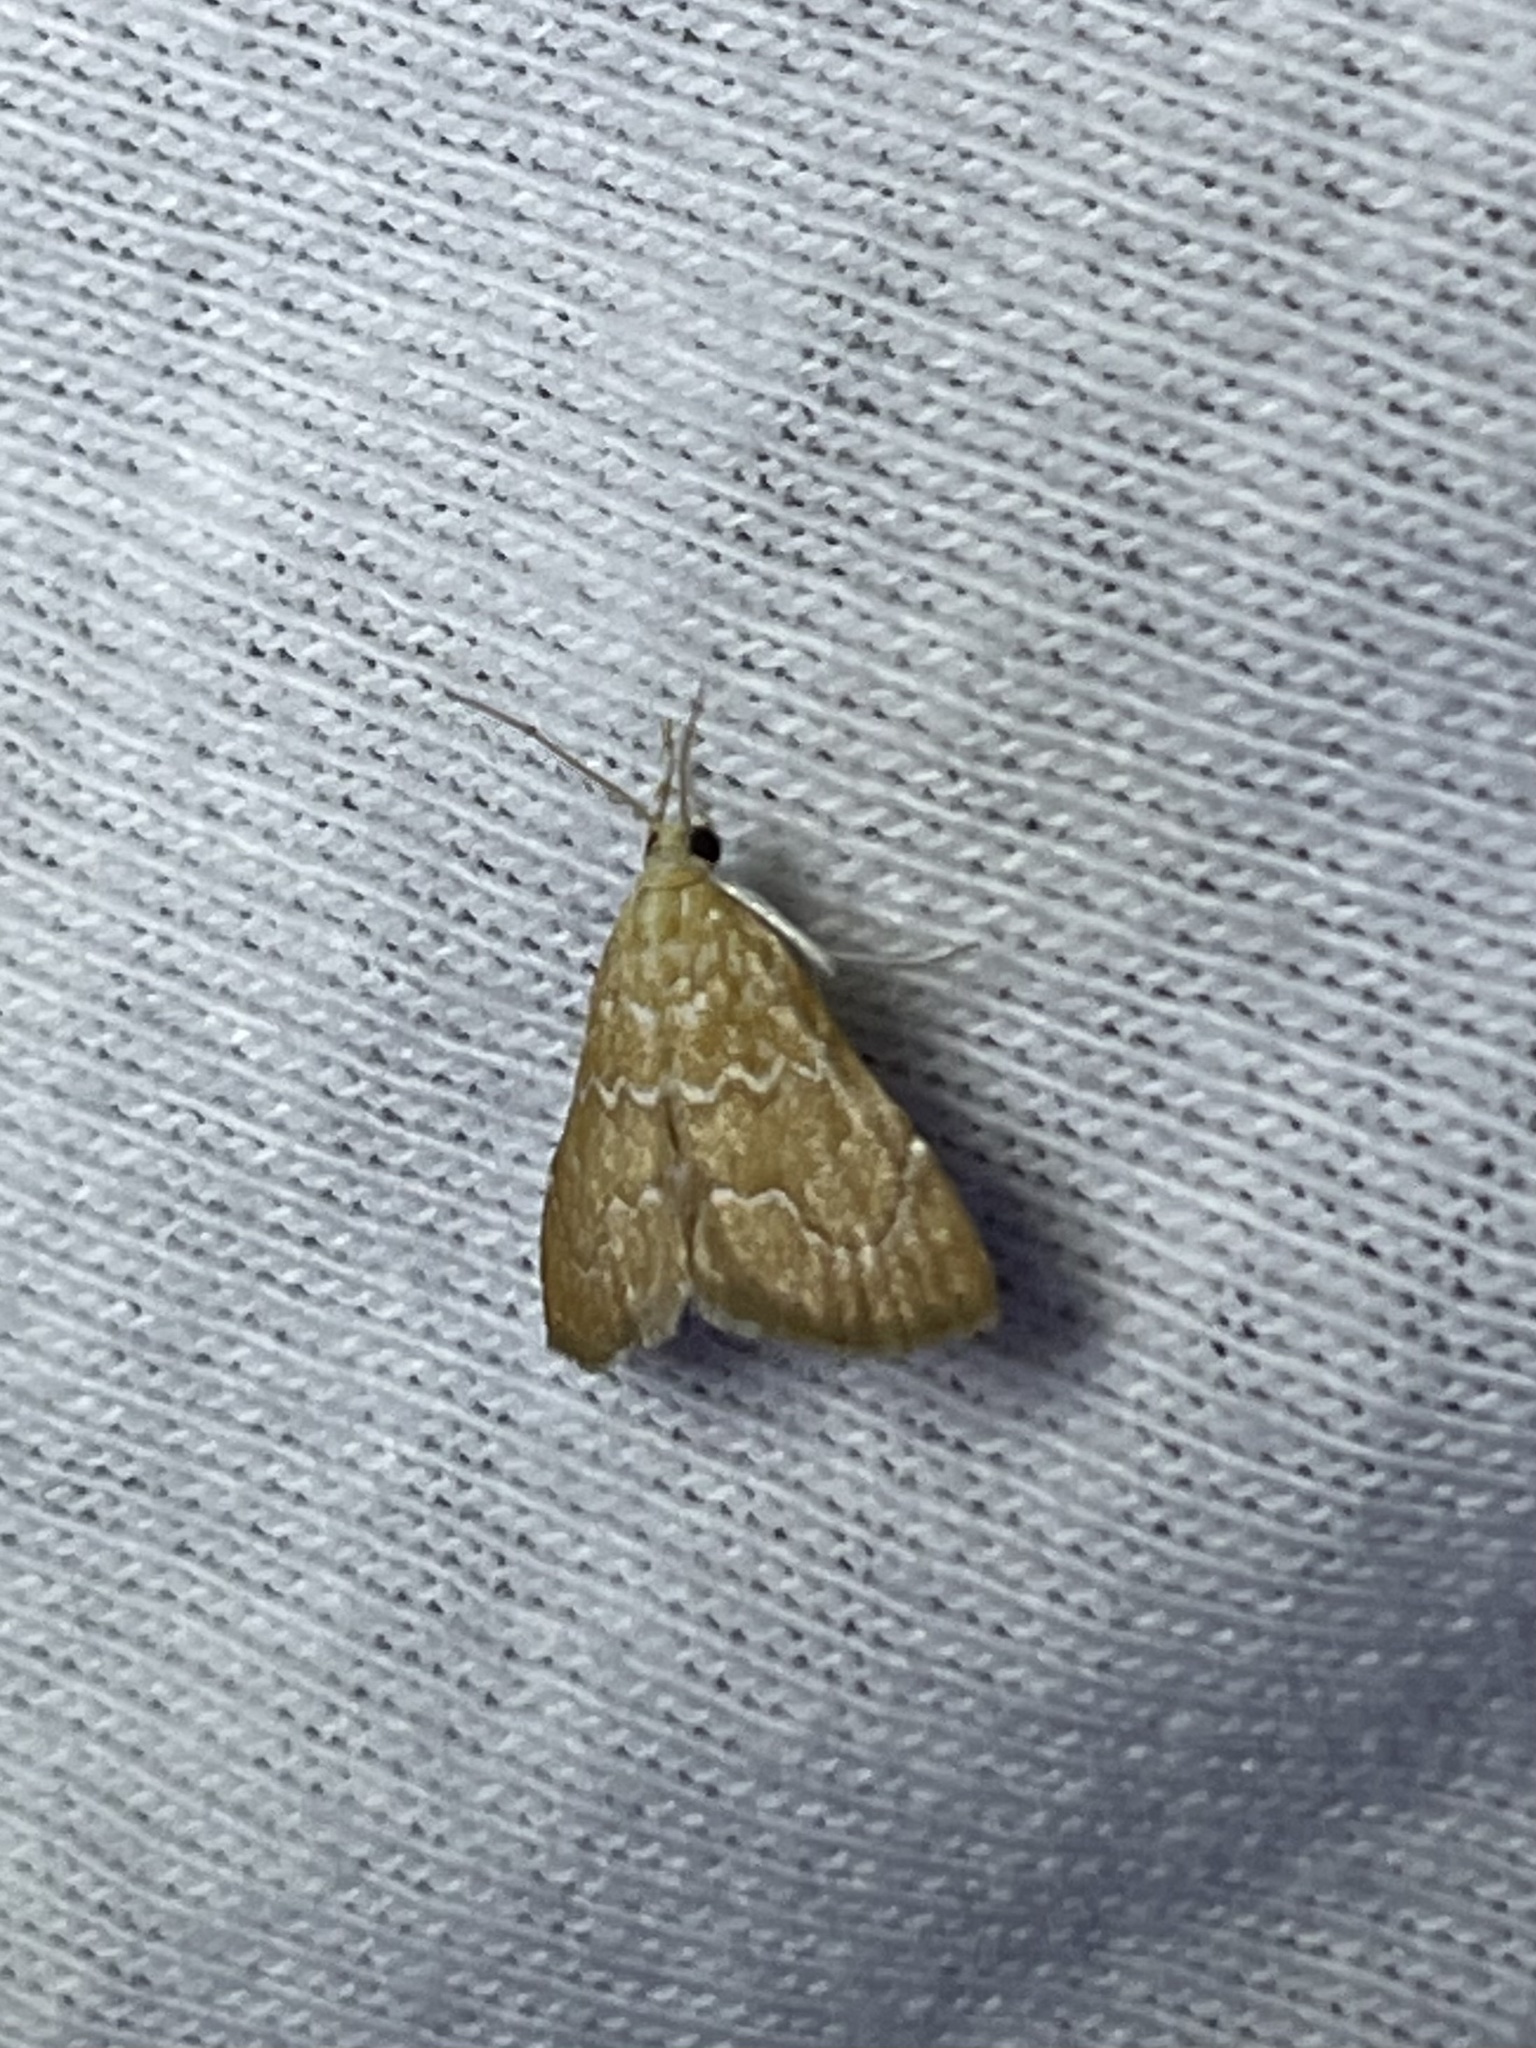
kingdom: Animalia
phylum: Arthropoda
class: Insecta
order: Lepidoptera
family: Crambidae
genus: Glaphyria
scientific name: Glaphyria sesquistrialis
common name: White-roped glaphyria
